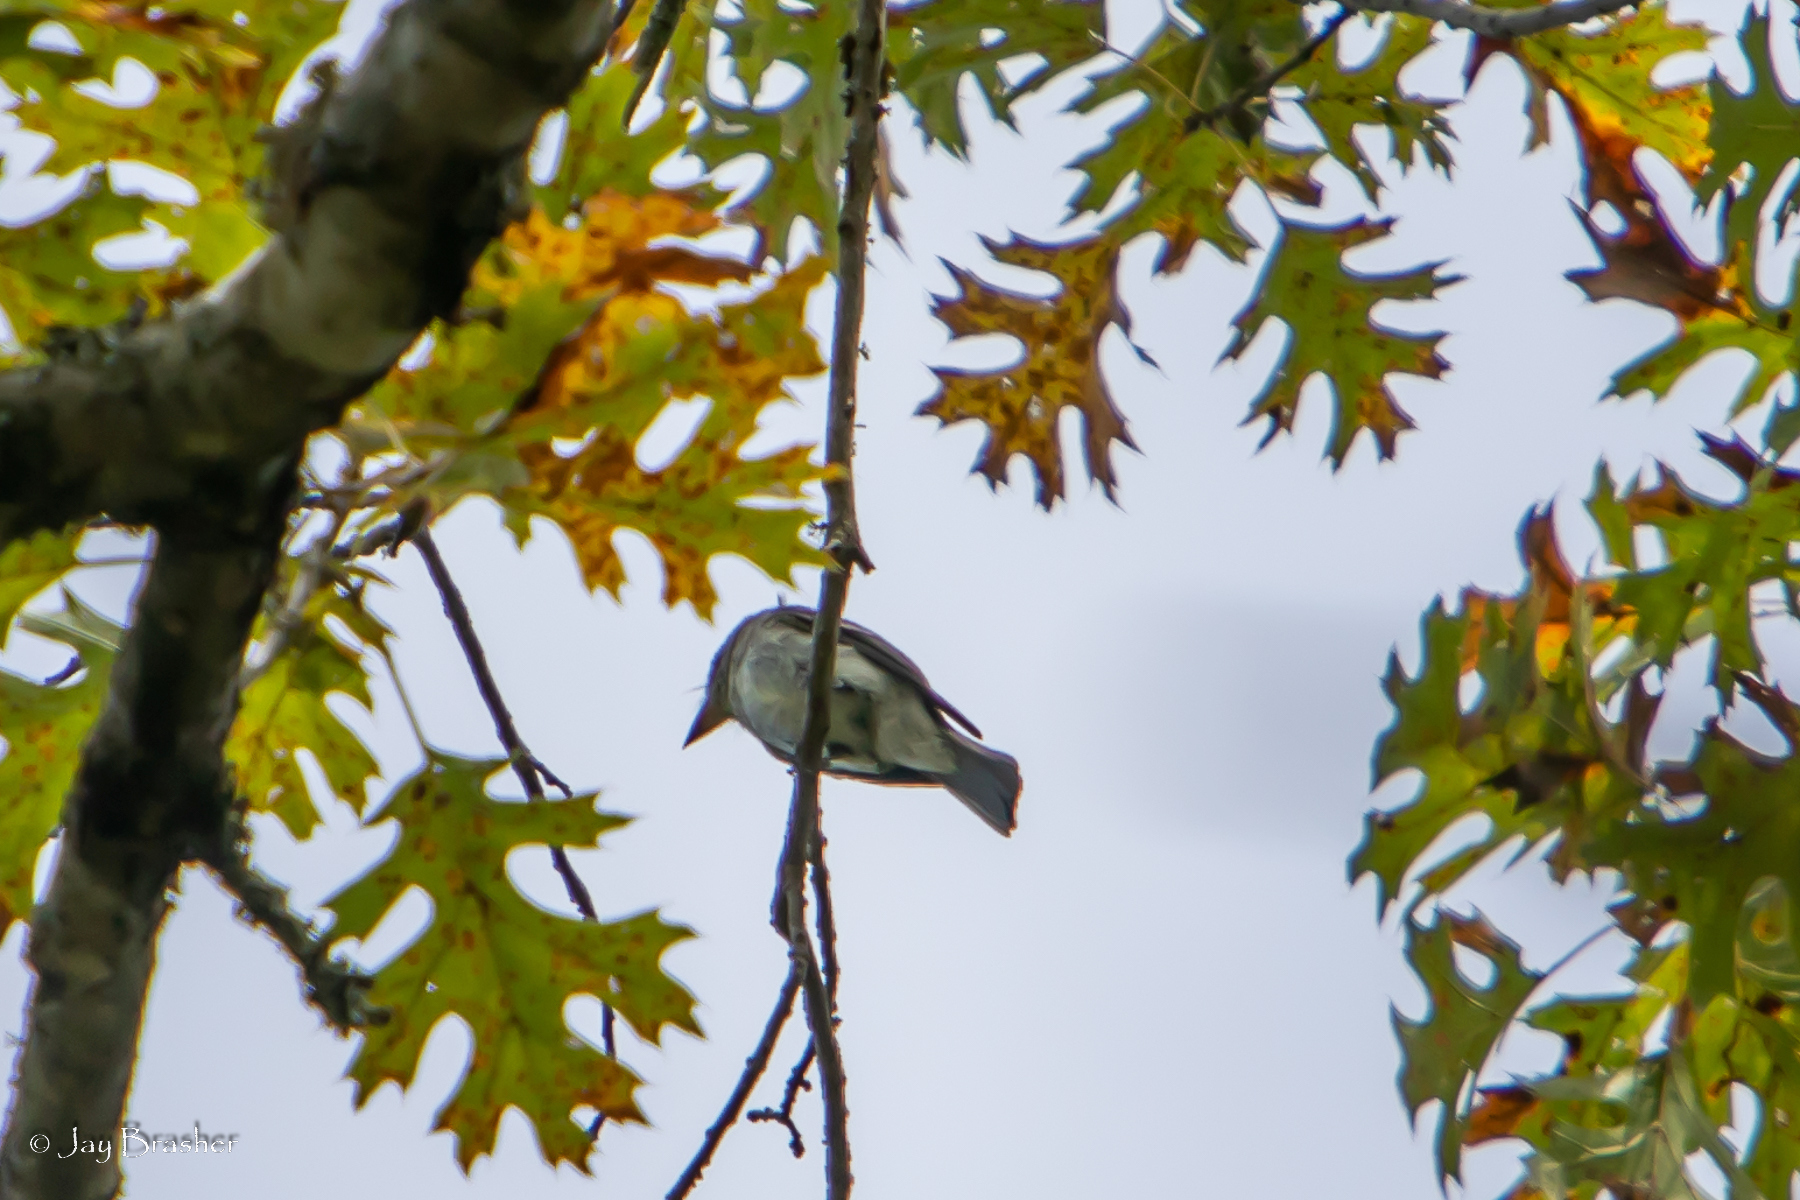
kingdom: Animalia
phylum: Chordata
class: Aves
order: Passeriformes
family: Tyrannidae
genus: Contopus
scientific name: Contopus virens
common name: Eastern wood-pewee
